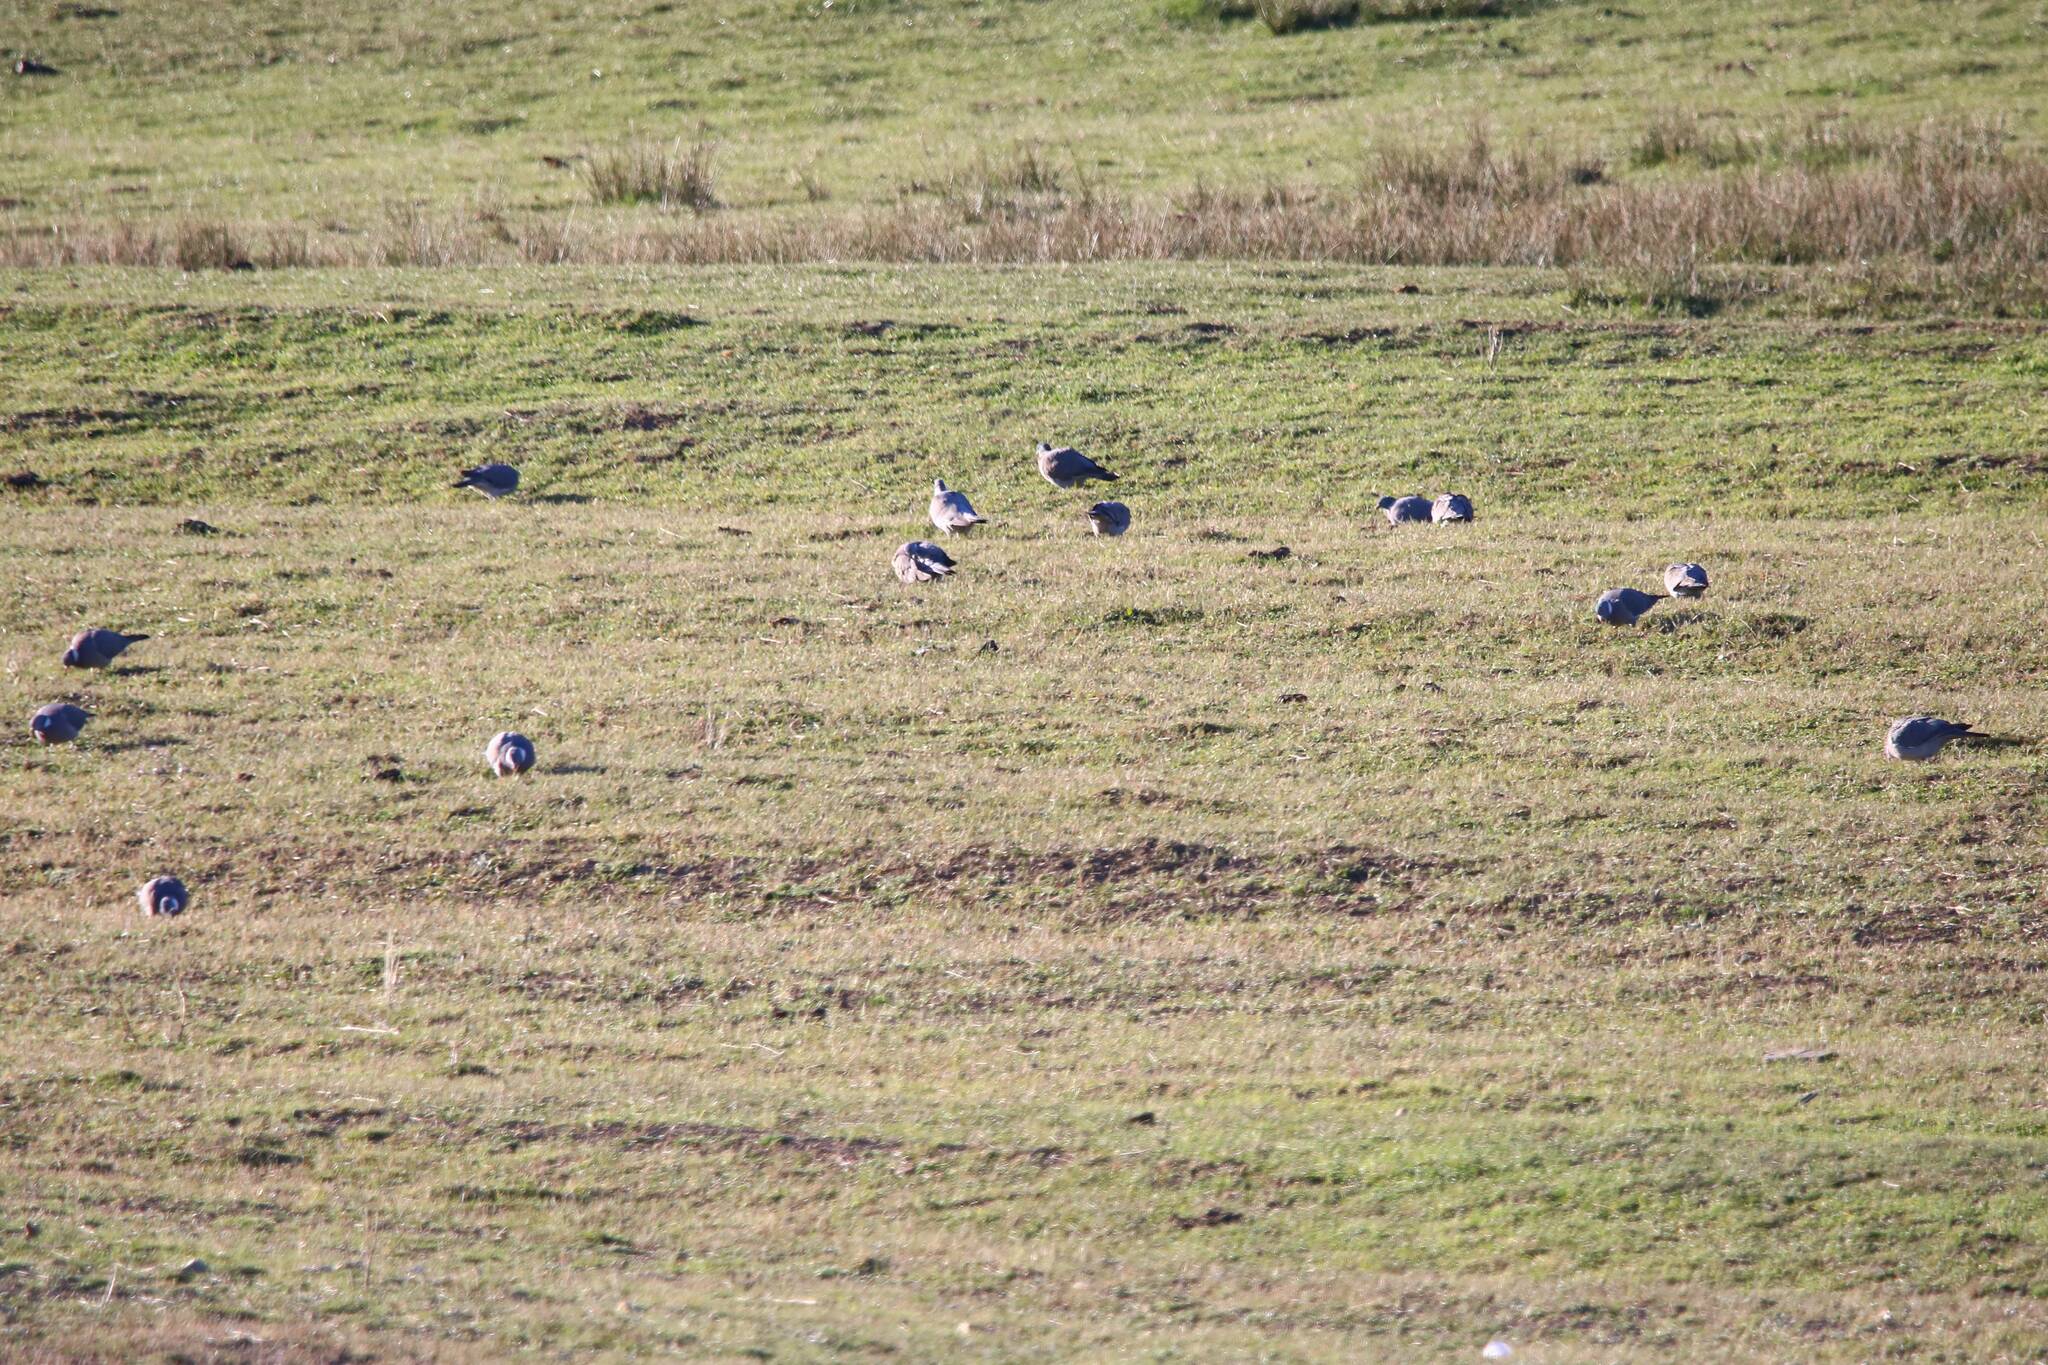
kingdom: Animalia
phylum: Chordata
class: Aves
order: Passeriformes
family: Corvidae
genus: Pica
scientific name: Pica mauritanica
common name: Maghreb magpie
